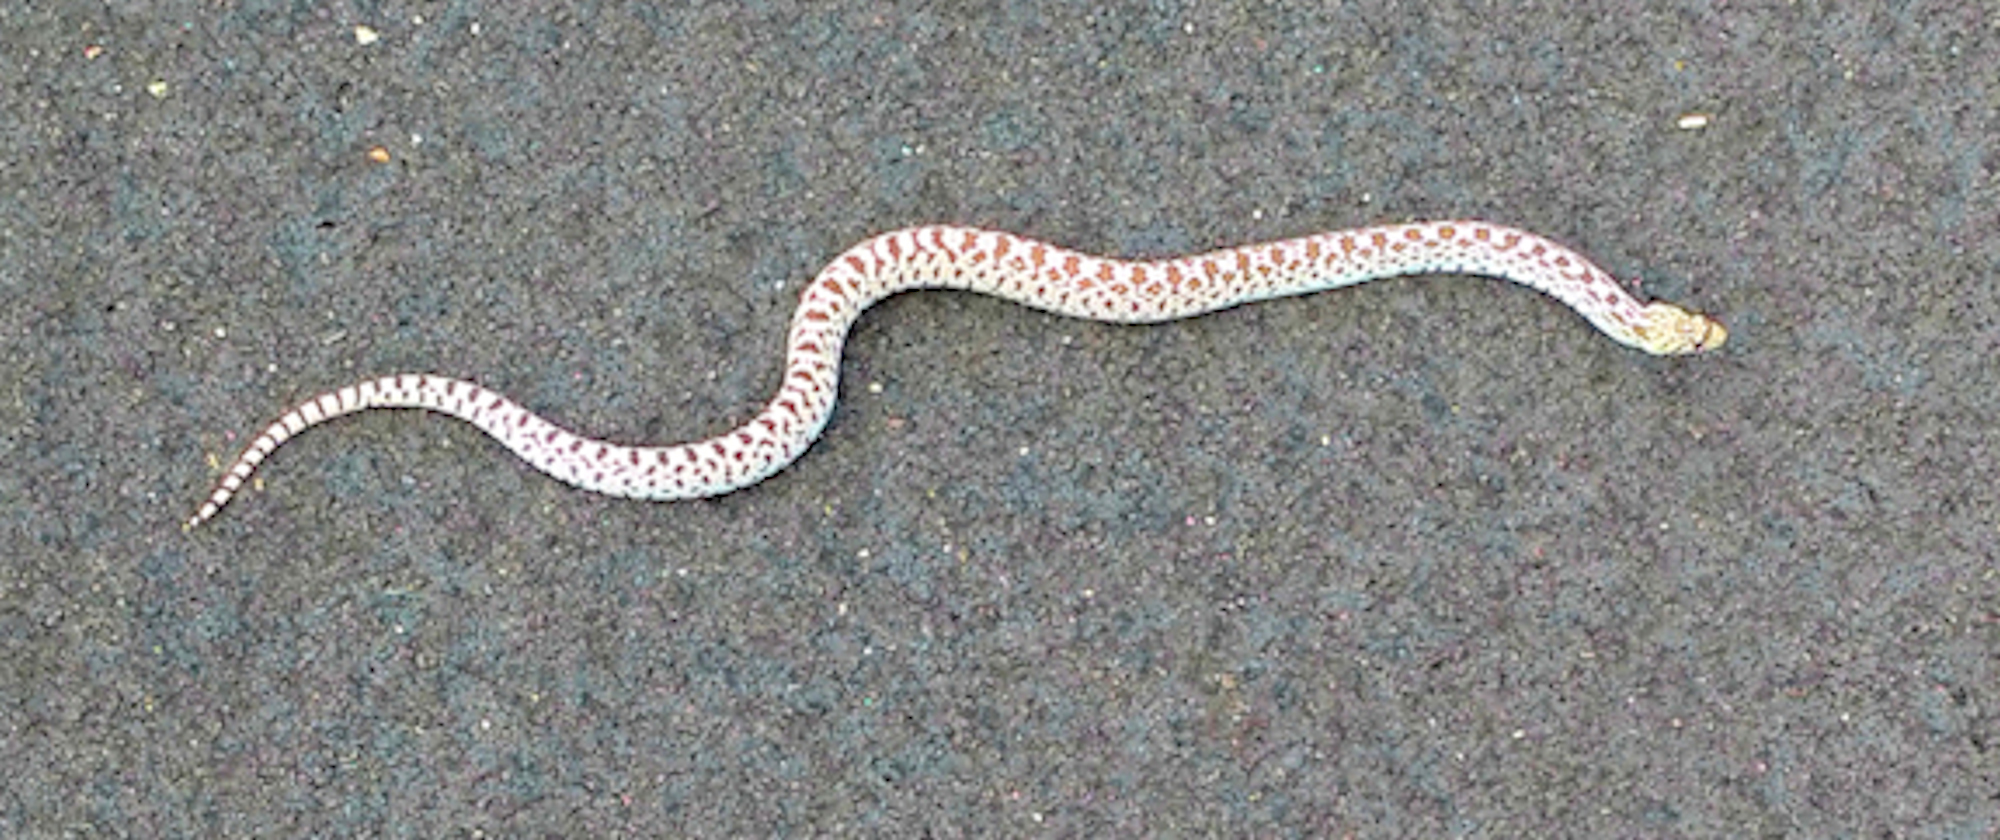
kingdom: Animalia
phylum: Chordata
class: Squamata
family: Colubridae
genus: Pituophis
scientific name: Pituophis catenifer
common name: Gopher snake
